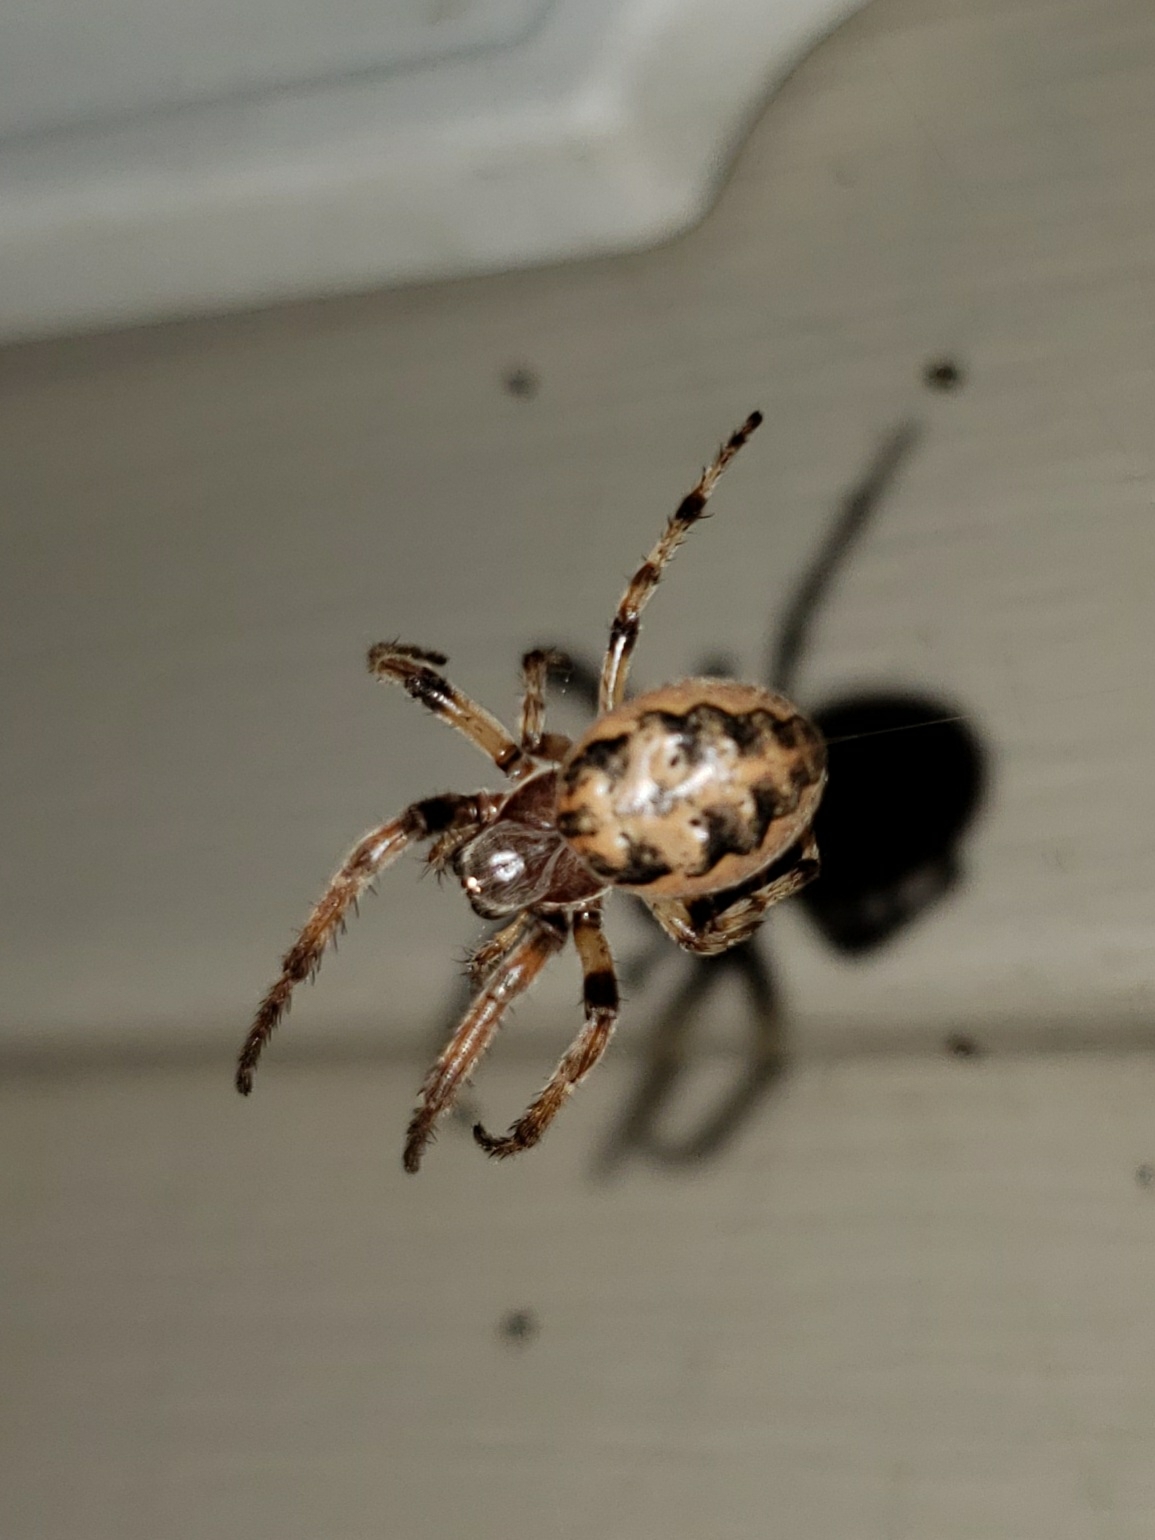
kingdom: Animalia
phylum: Arthropoda
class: Arachnida
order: Araneae
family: Araneidae
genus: Larinioides
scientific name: Larinioides cornutus
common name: Furrow orbweaver
